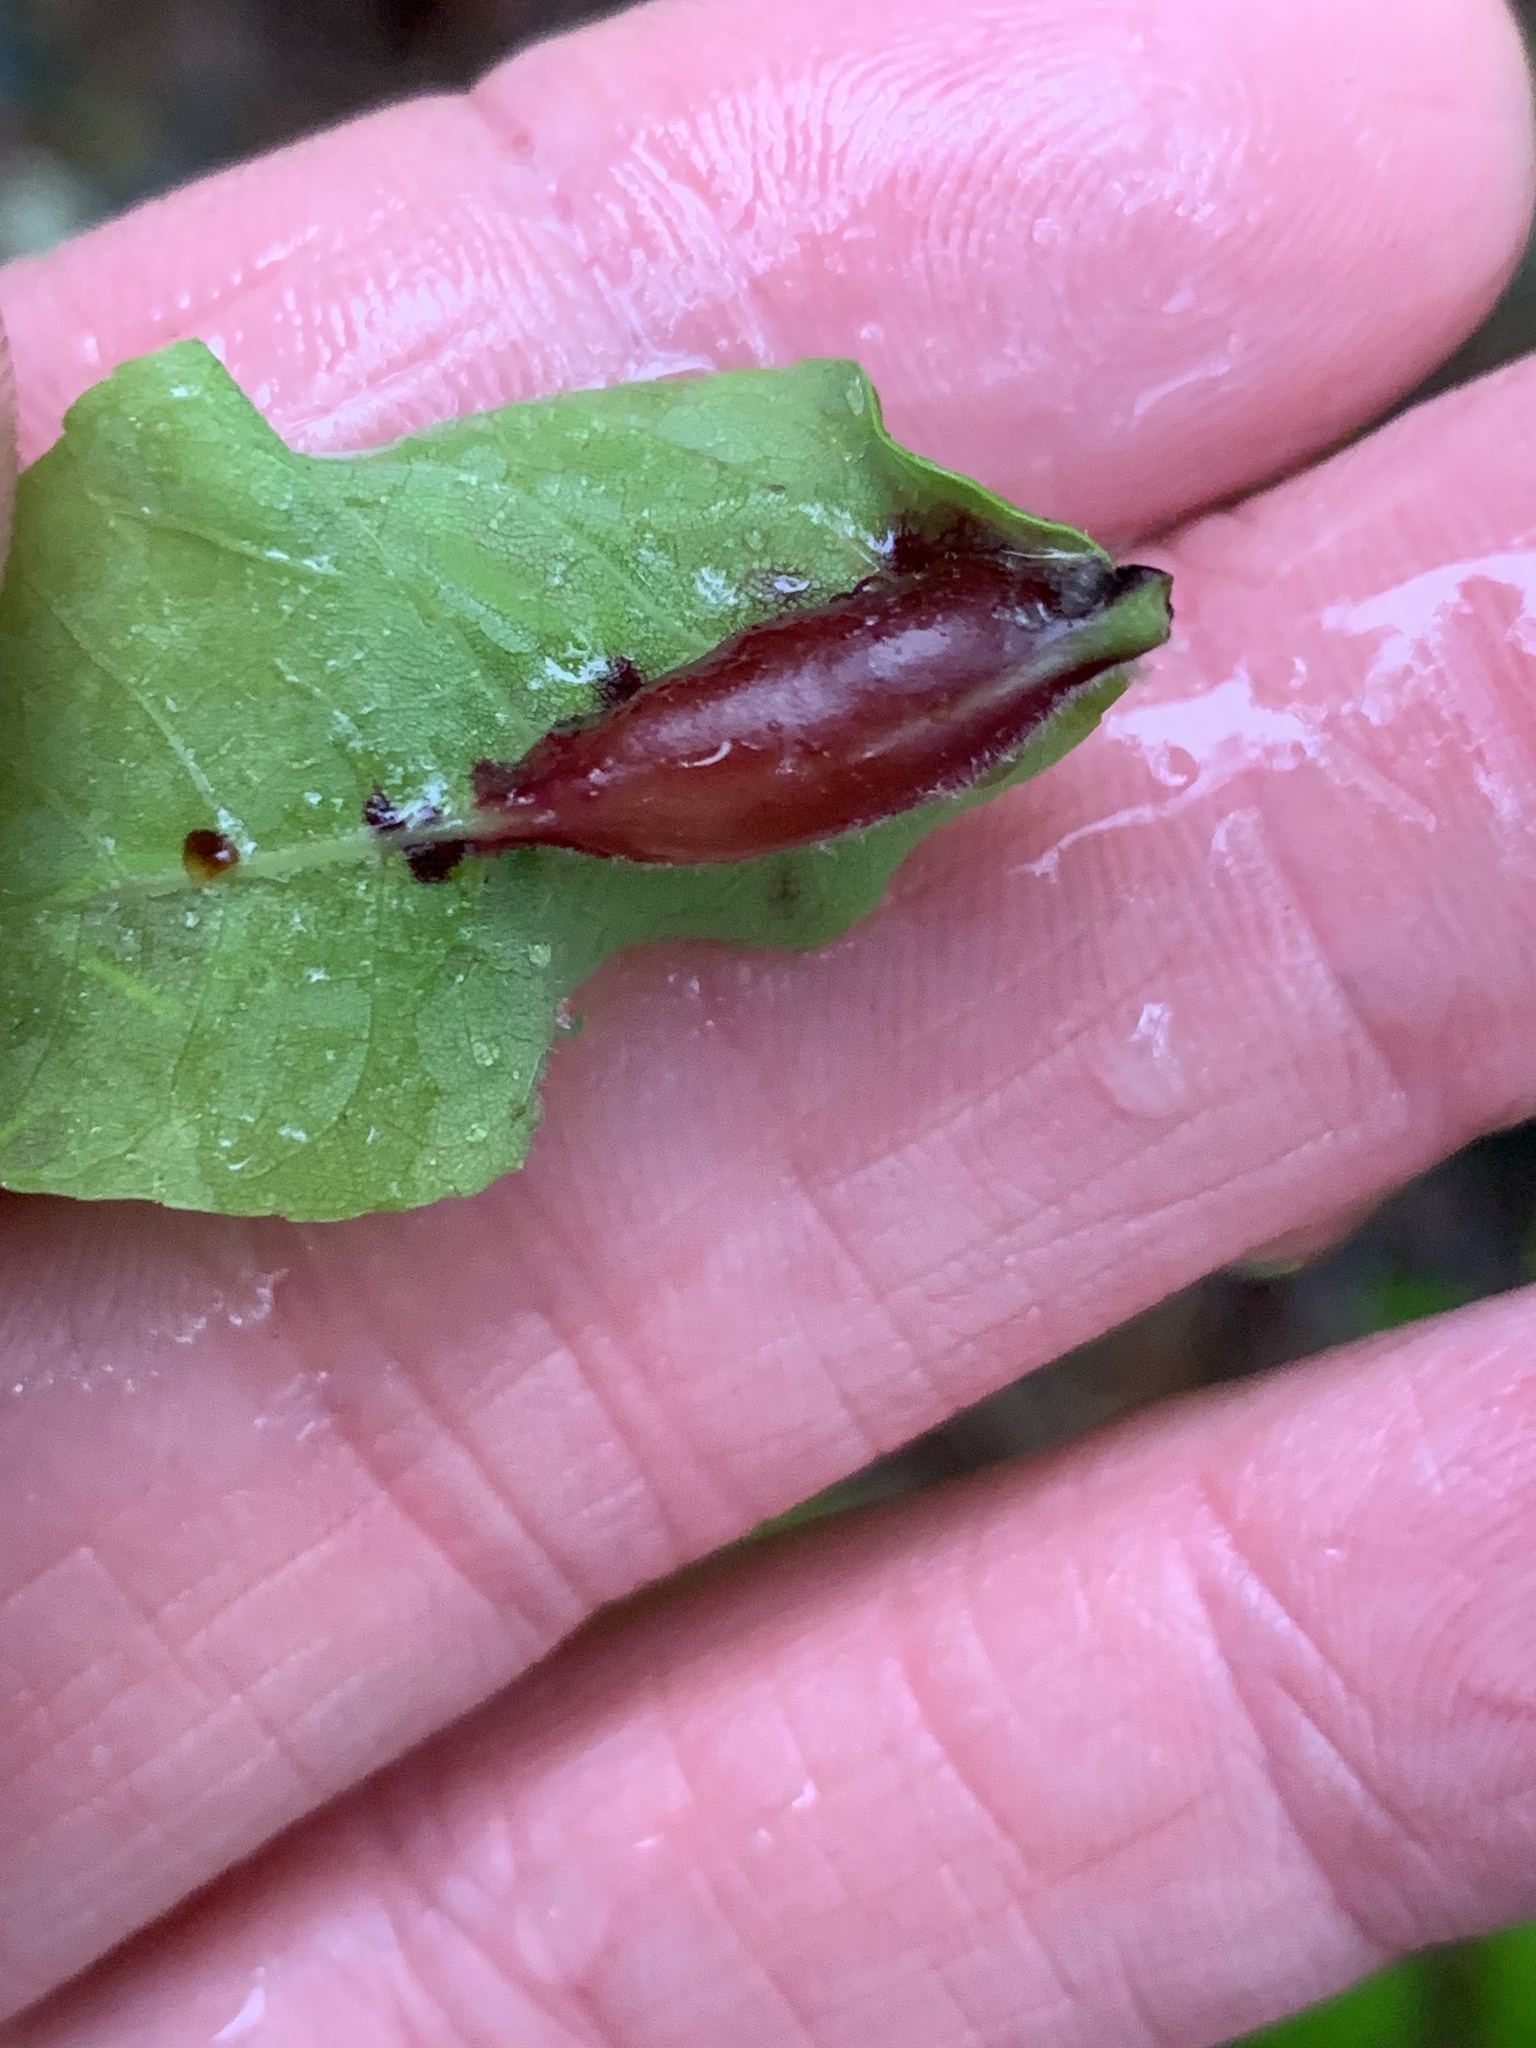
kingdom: Animalia
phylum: Arthropoda
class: Insecta
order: Diptera
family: Cecidomyiidae
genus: Dasineura
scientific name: Dasineura tumidosae
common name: Ash petiole gall midge
